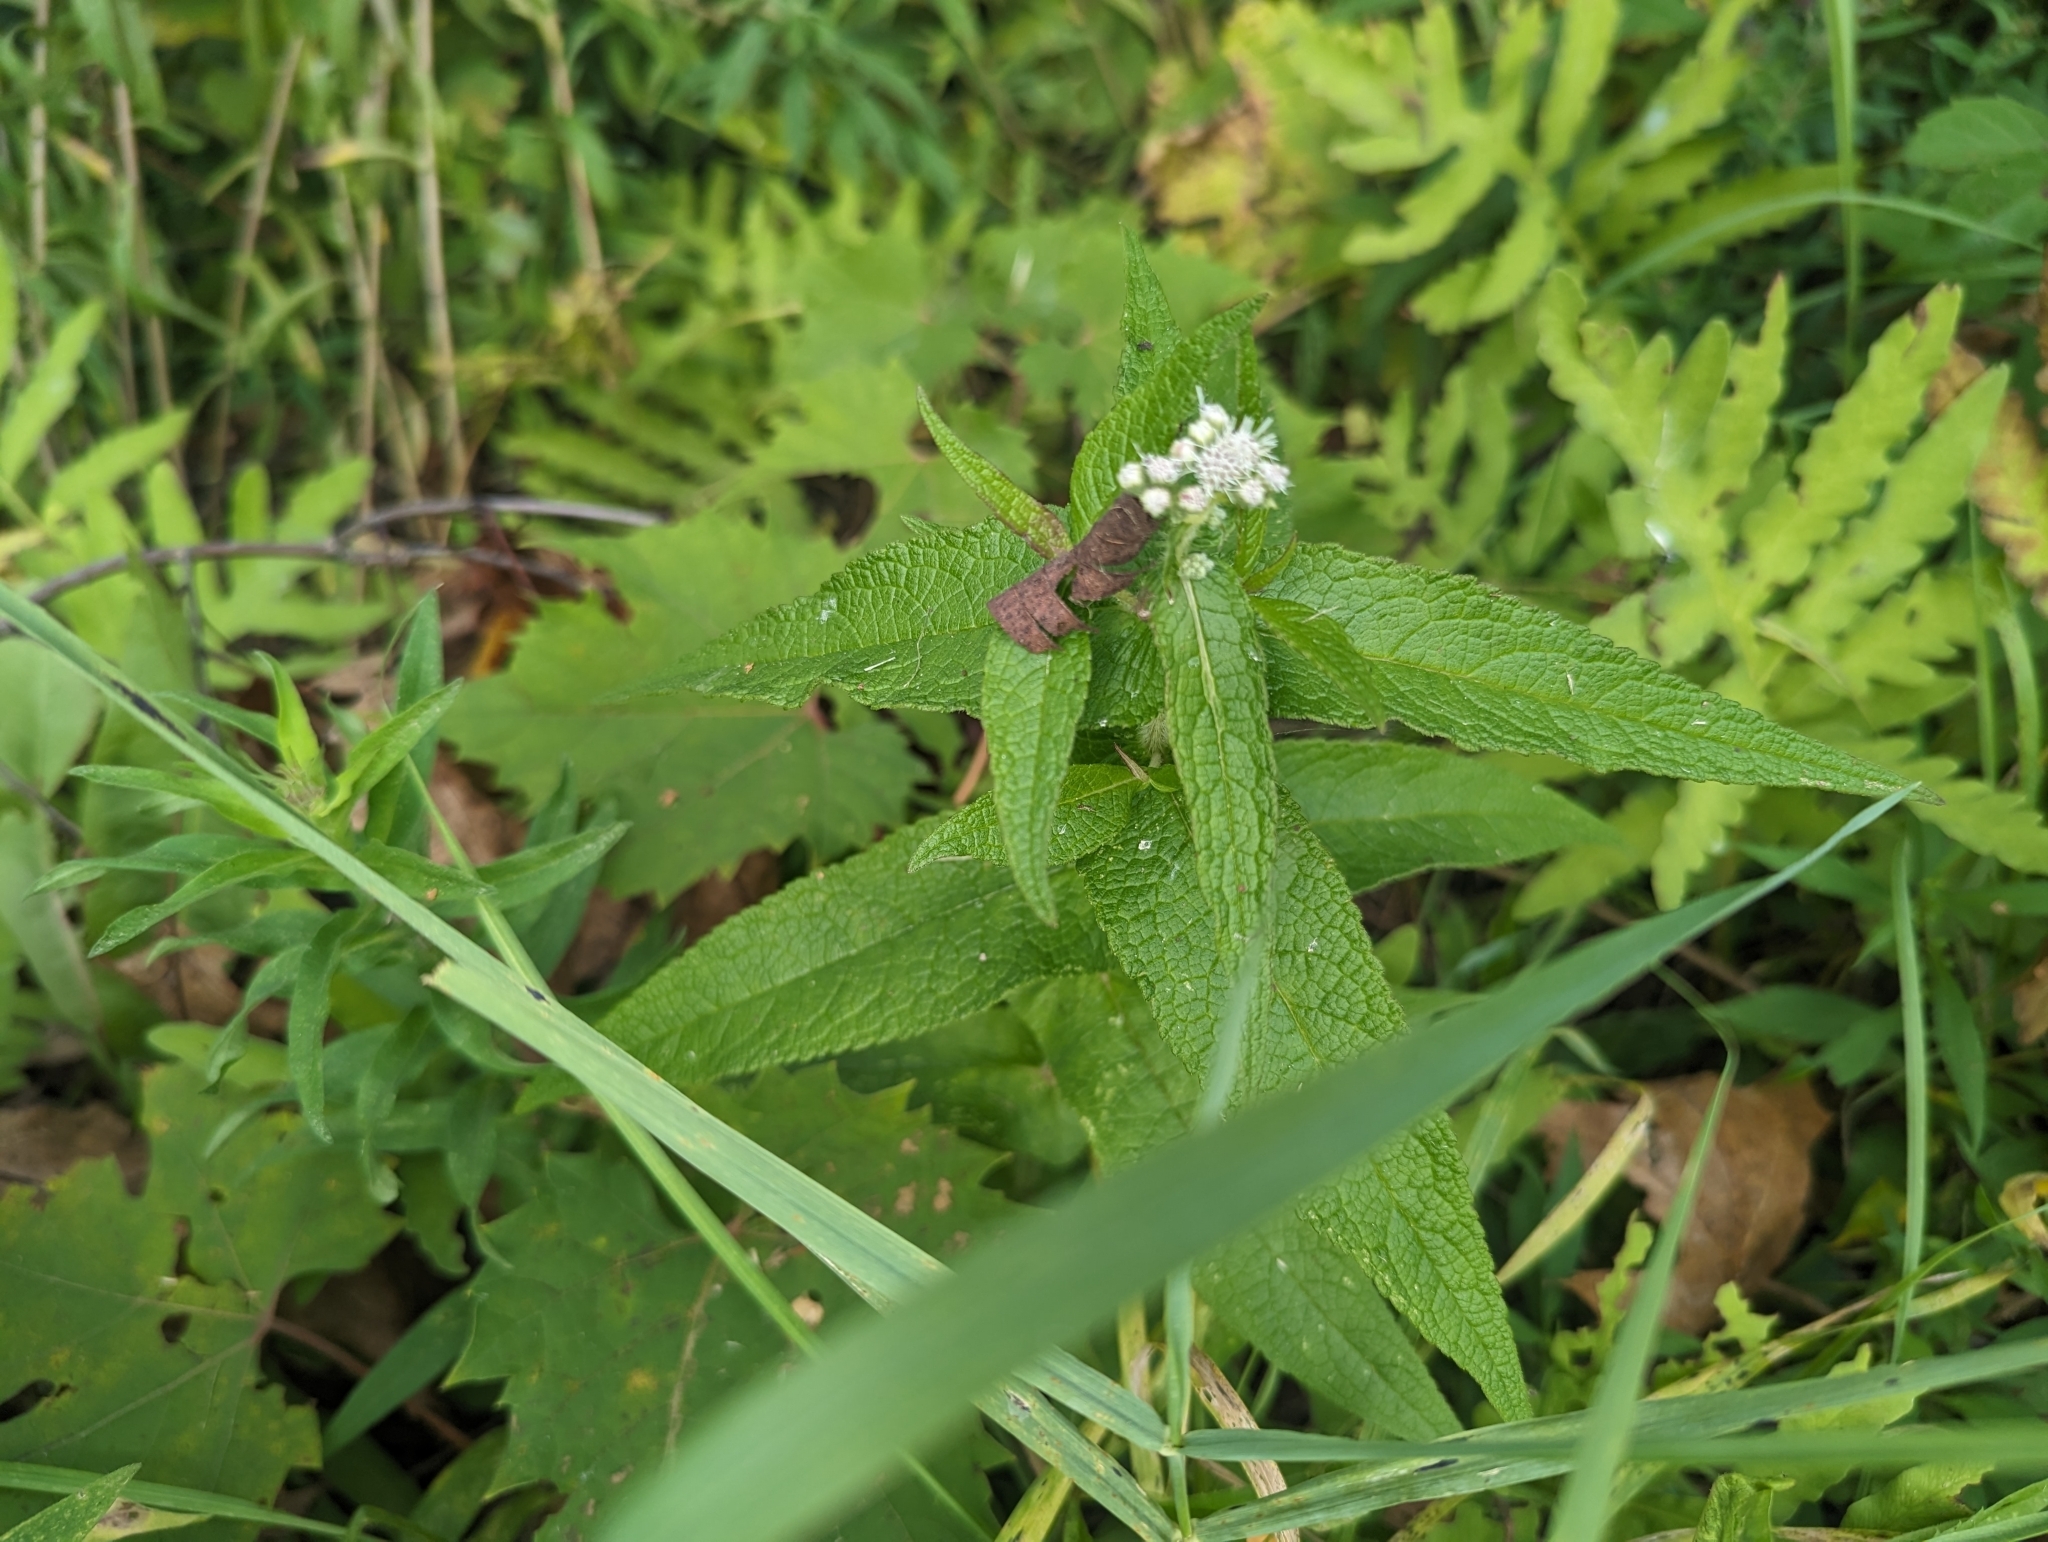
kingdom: Plantae
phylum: Tracheophyta
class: Magnoliopsida
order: Asterales
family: Asteraceae
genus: Eupatorium
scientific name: Eupatorium perfoliatum
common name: Boneset
